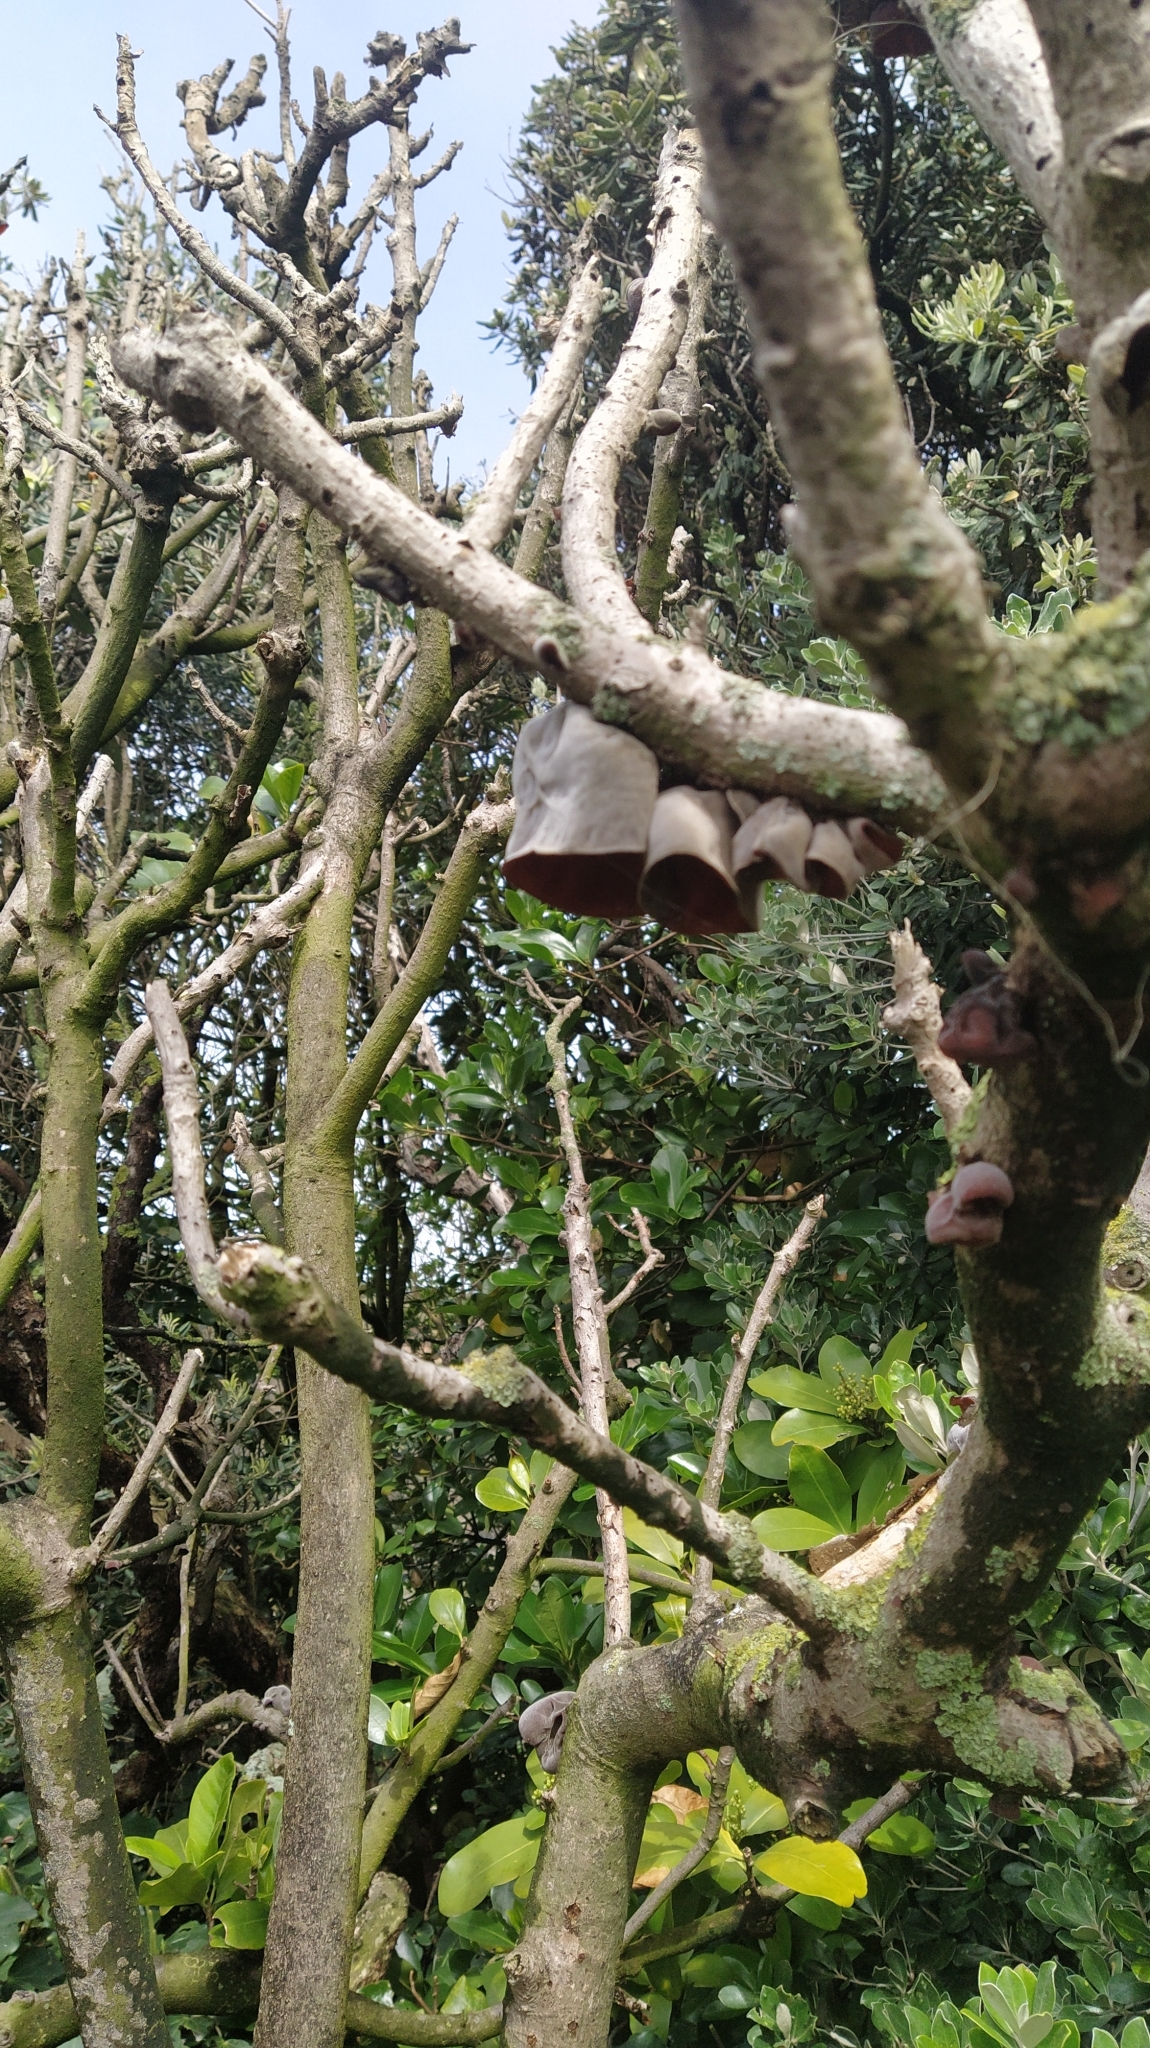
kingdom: Fungi
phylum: Basidiomycota
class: Agaricomycetes
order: Auriculariales
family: Auriculariaceae
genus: Auricularia
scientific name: Auricularia cornea
